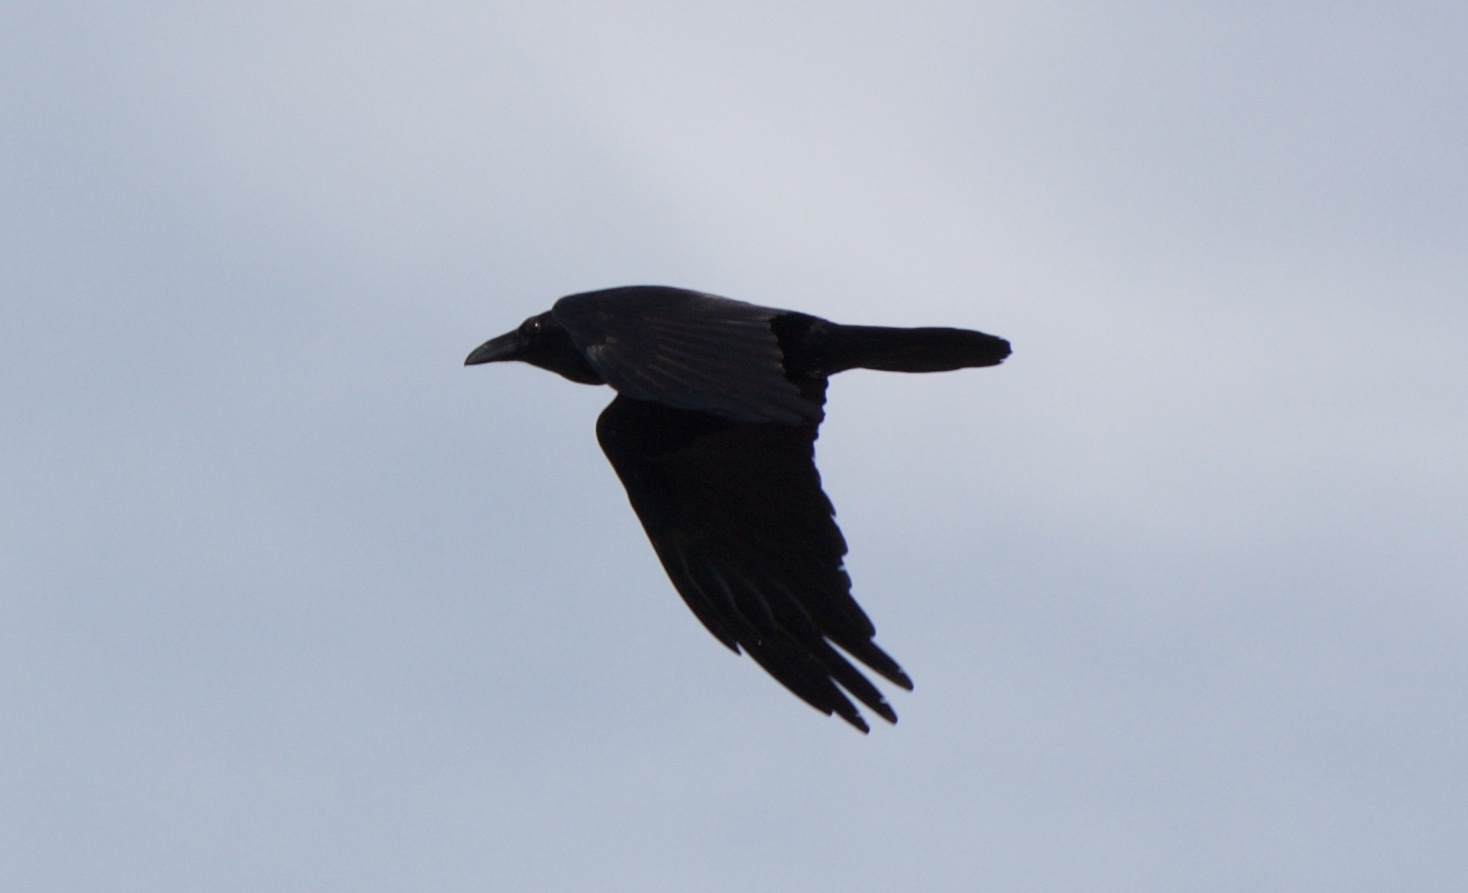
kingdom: Animalia
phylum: Chordata
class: Aves
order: Passeriformes
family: Corvidae
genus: Corvus
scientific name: Corvus corax
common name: Common raven
